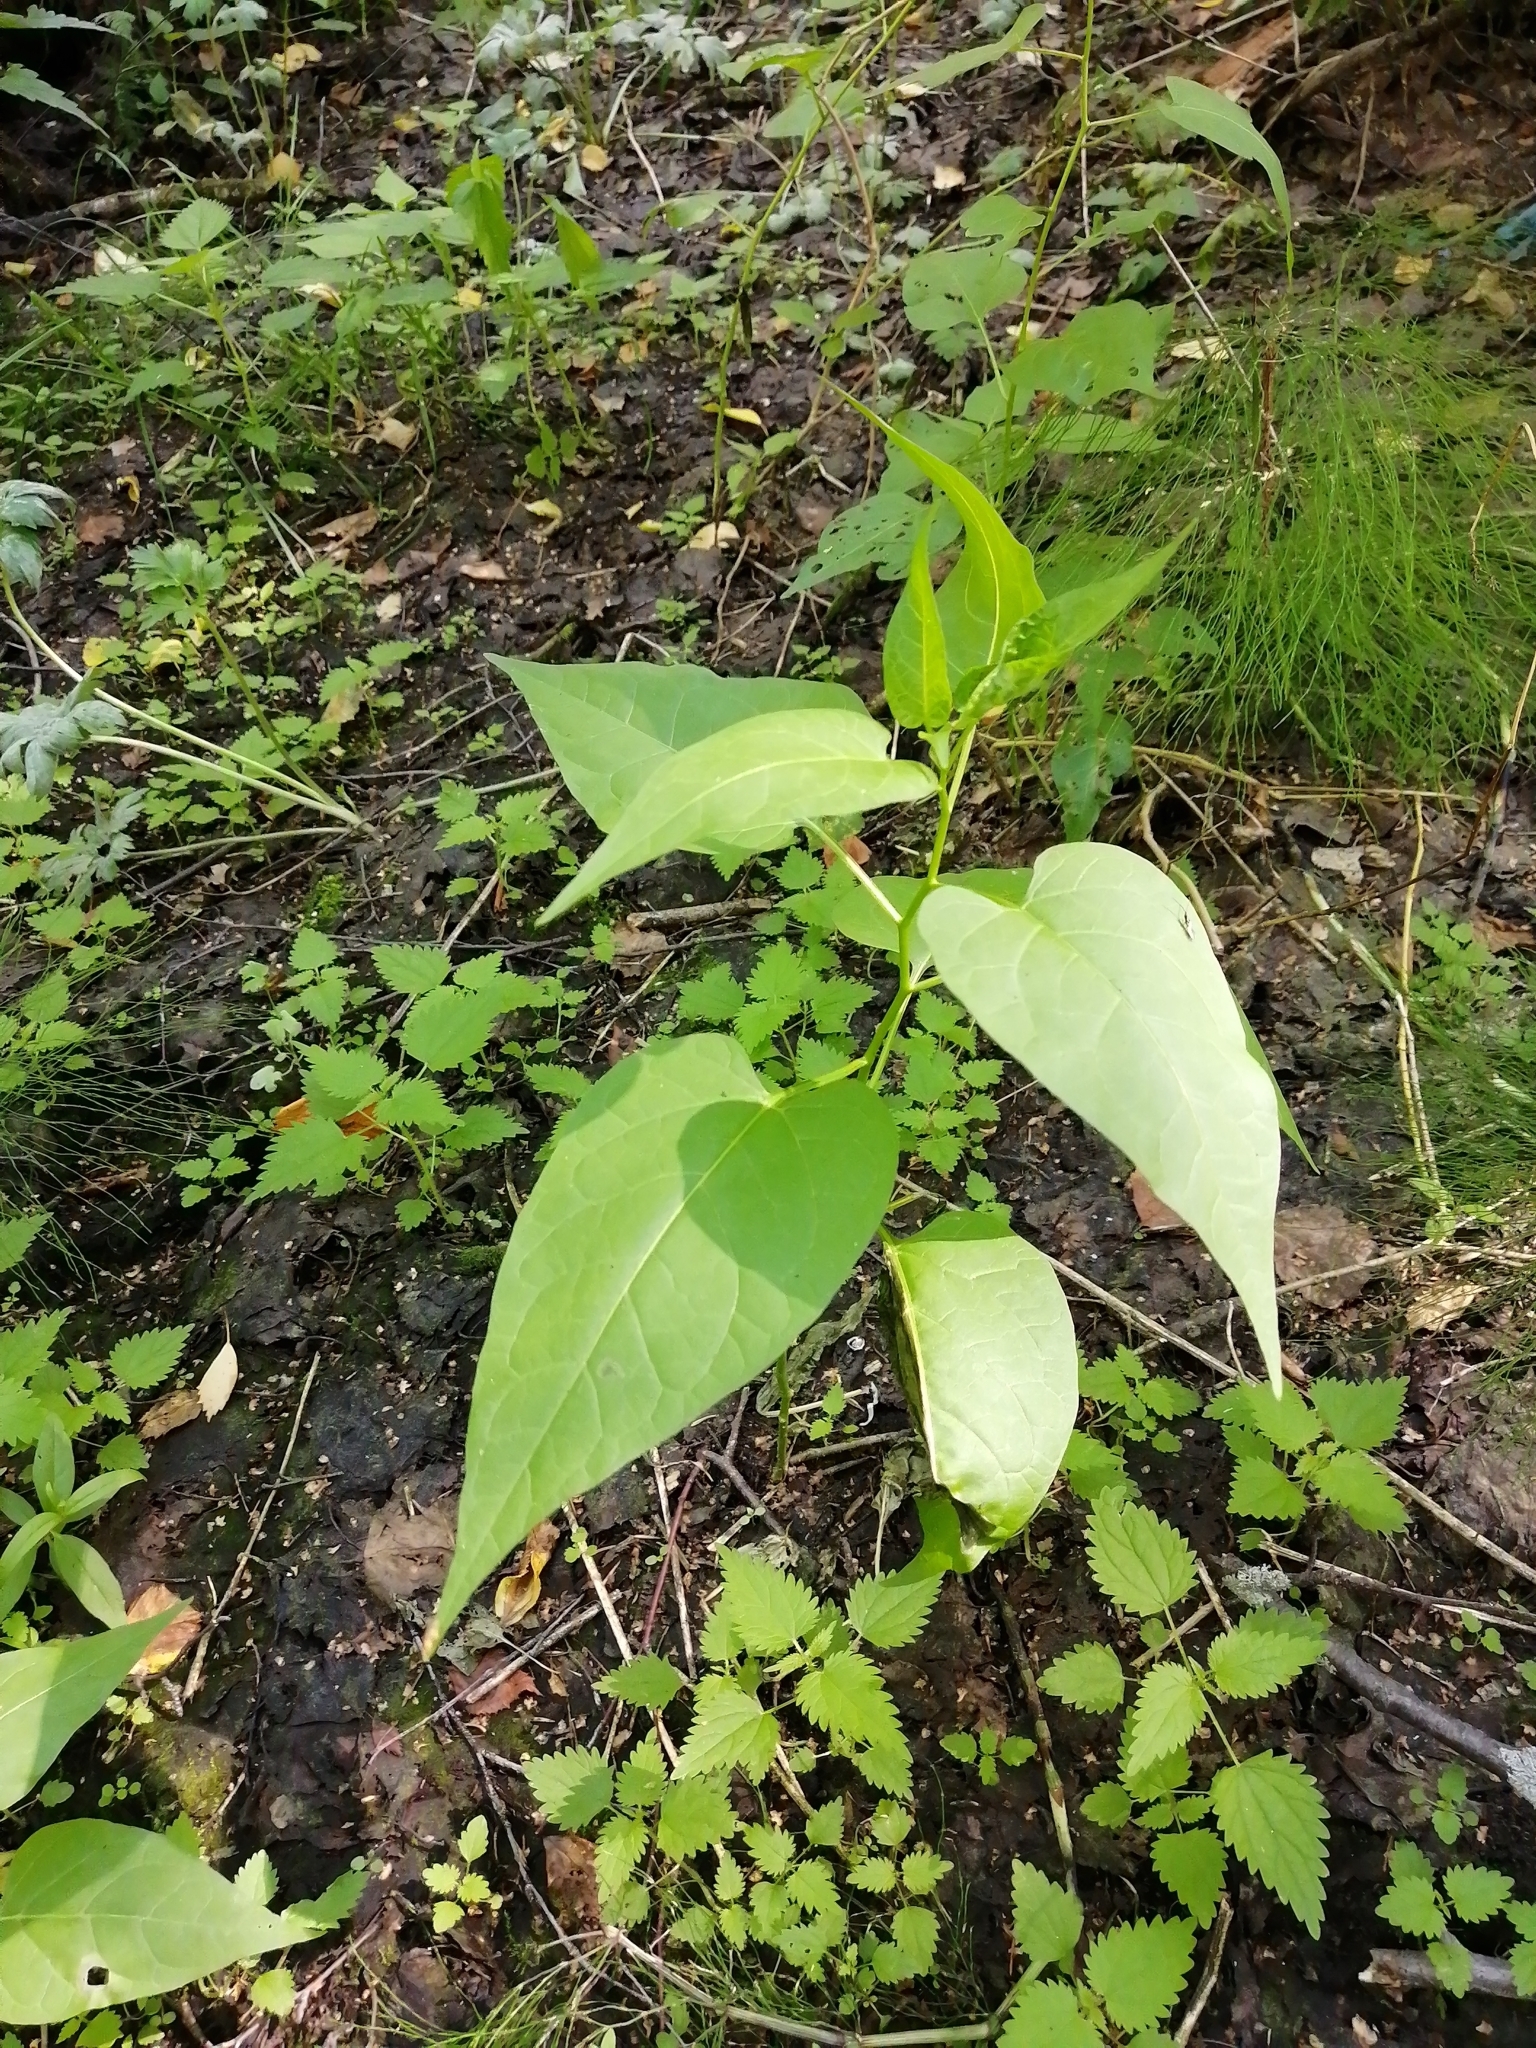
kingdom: Plantae
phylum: Tracheophyta
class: Magnoliopsida
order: Solanales
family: Solanaceae
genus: Solanum
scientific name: Solanum dulcamara
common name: Climbing nightshade
